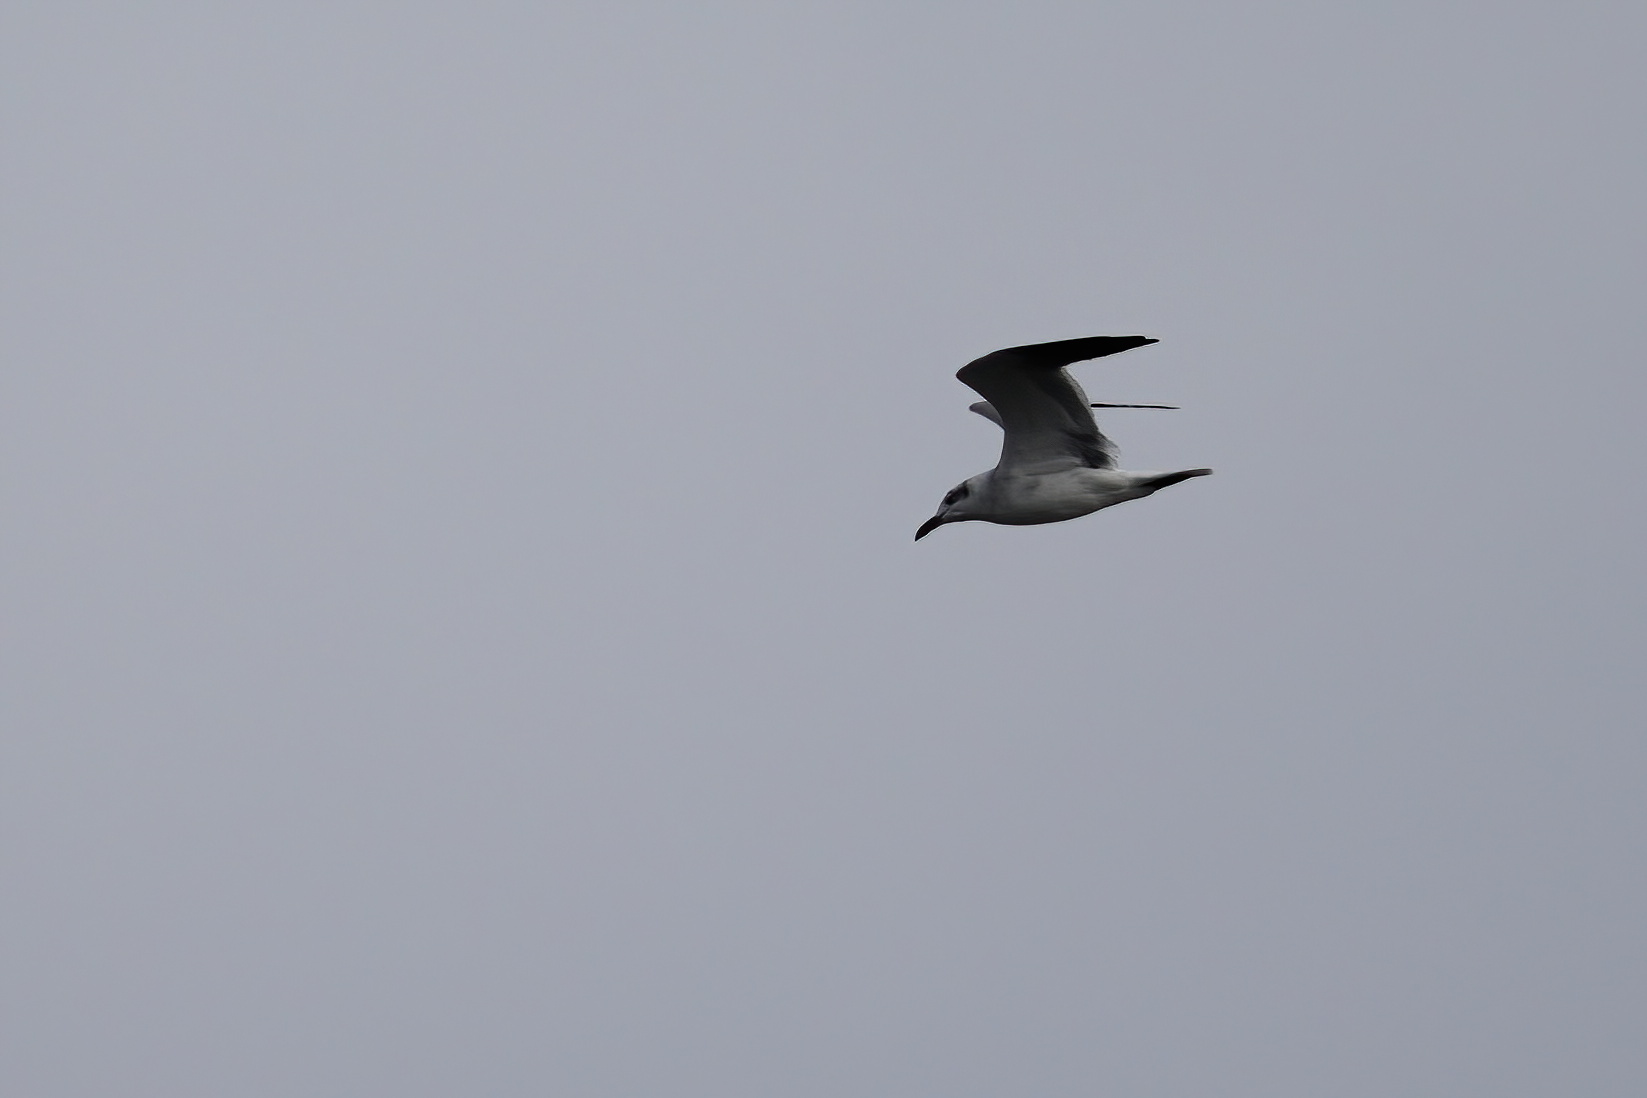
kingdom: Animalia
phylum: Chordata
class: Aves
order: Charadriiformes
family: Laridae
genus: Leucophaeus
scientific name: Leucophaeus atricilla
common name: Laughing gull
